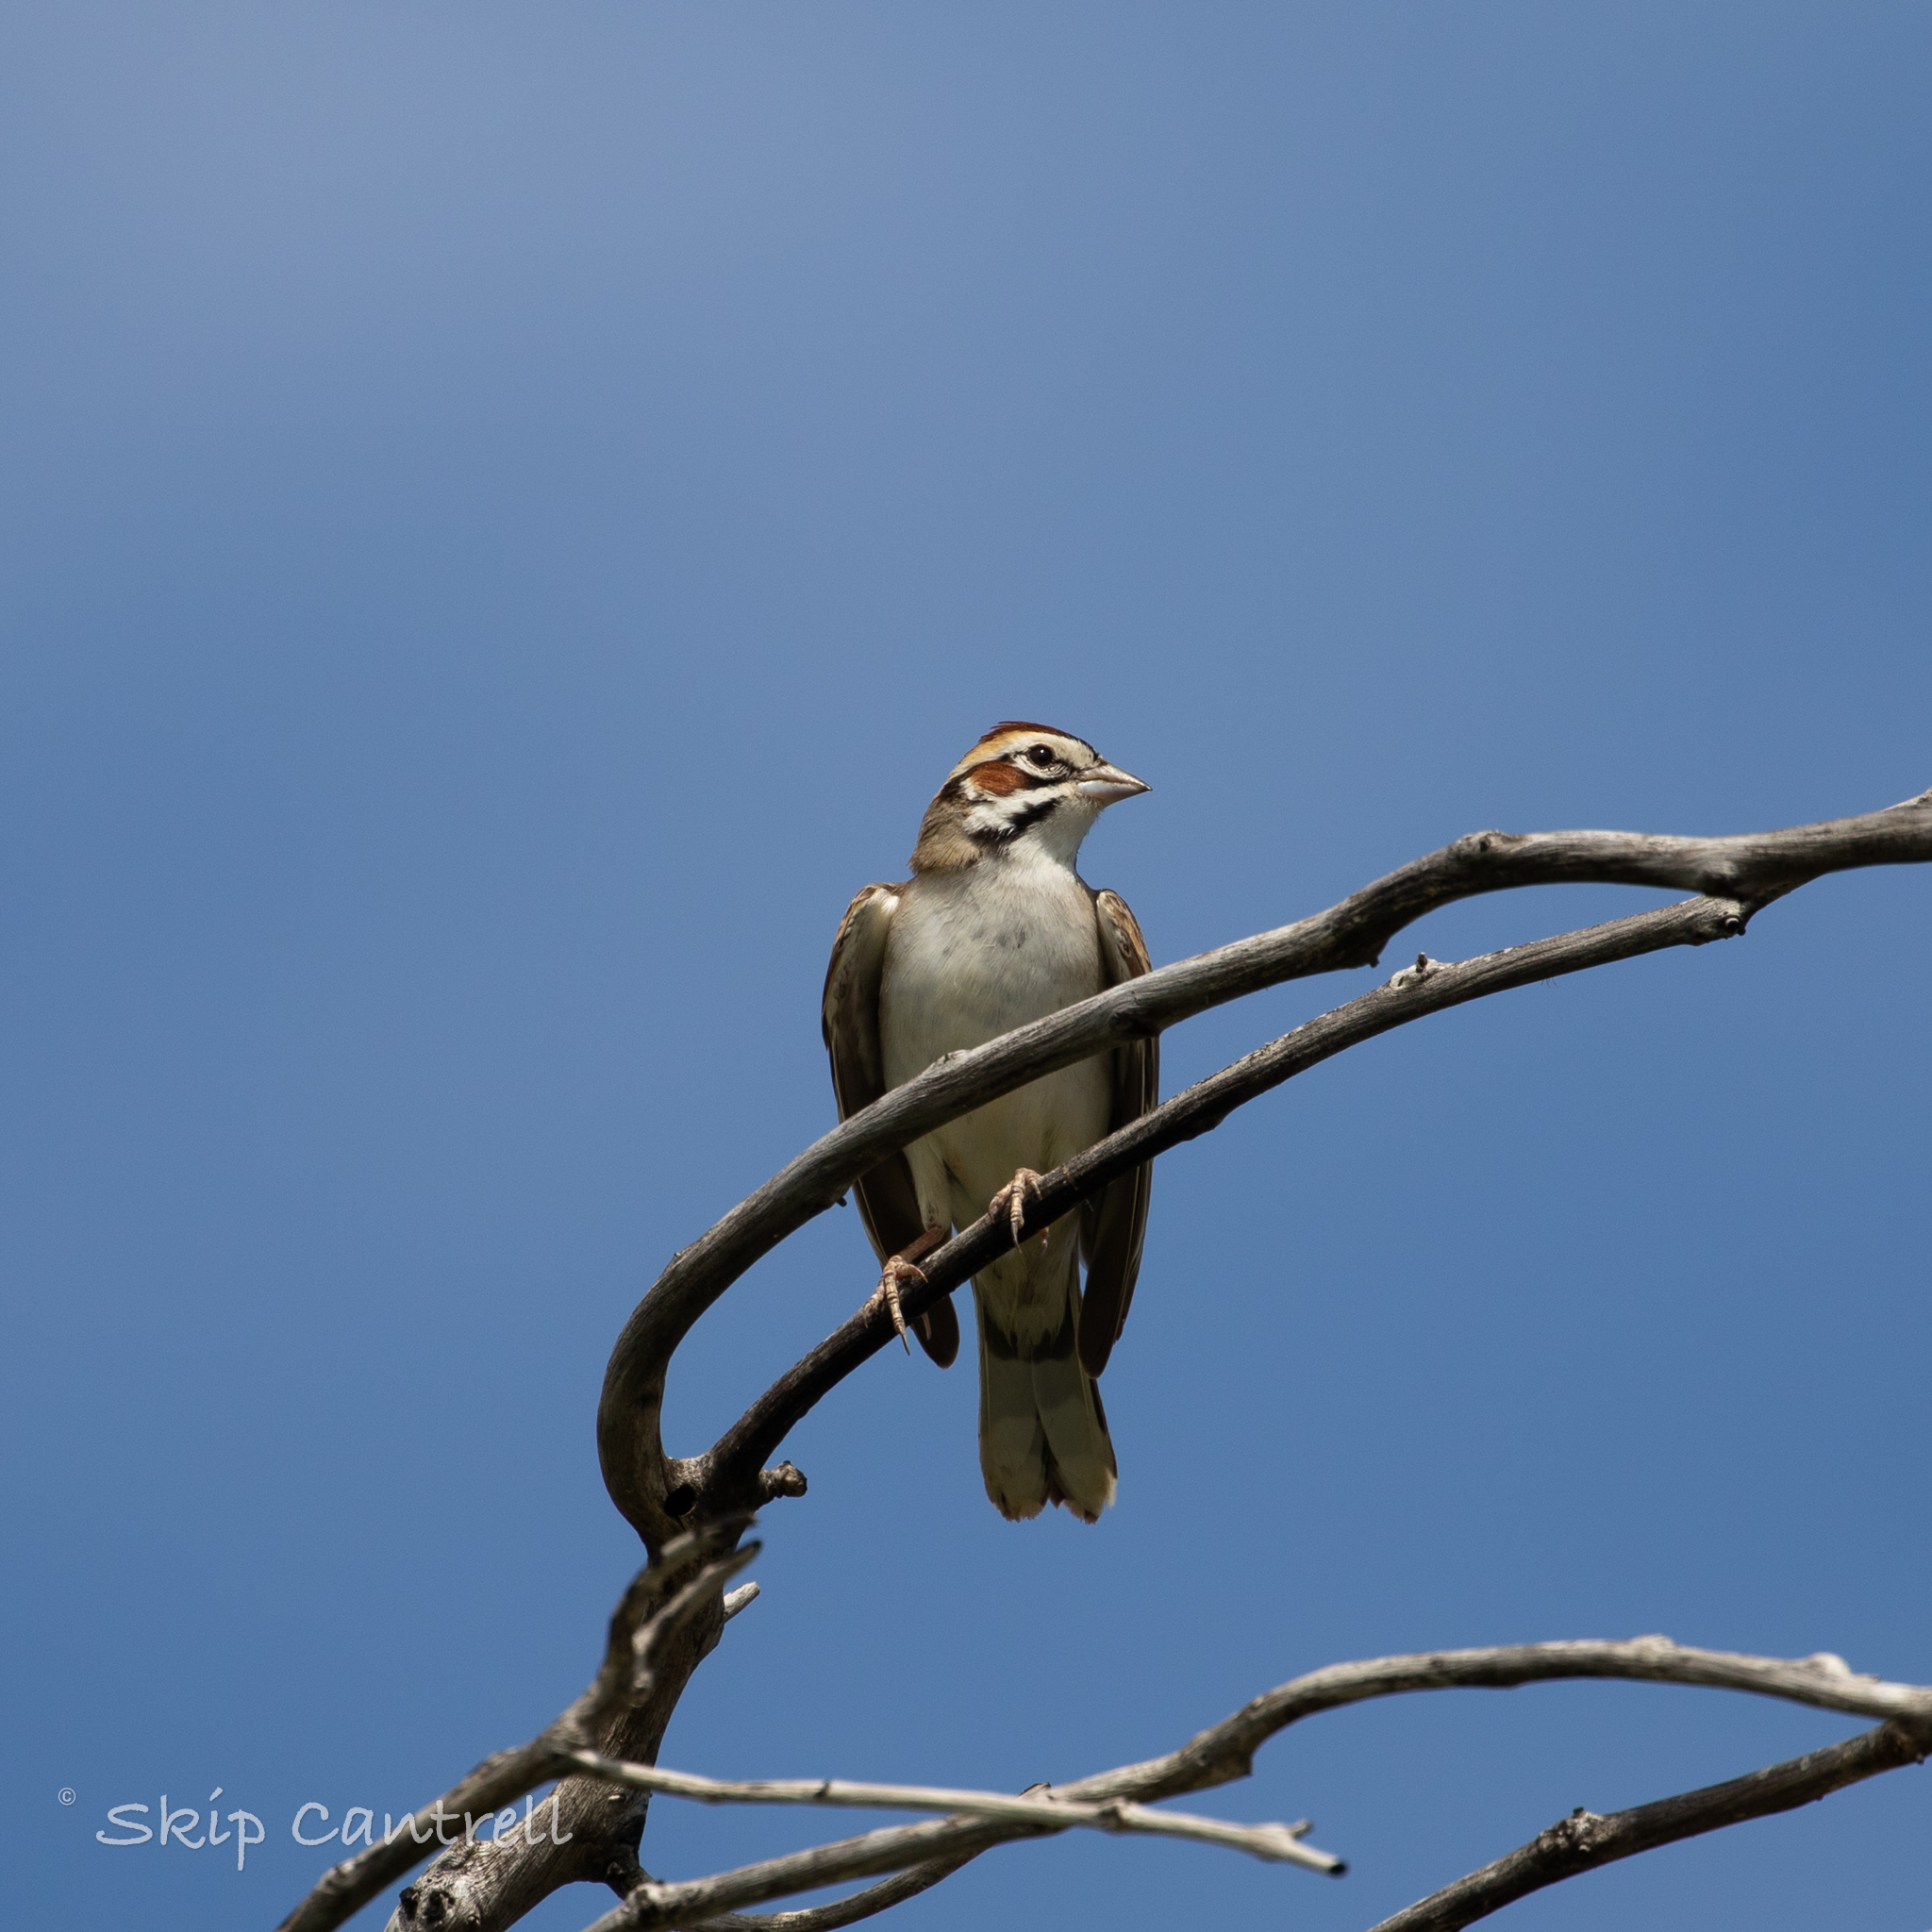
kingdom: Animalia
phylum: Chordata
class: Aves
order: Passeriformes
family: Passerellidae
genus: Chondestes
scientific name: Chondestes grammacus
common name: Lark sparrow
